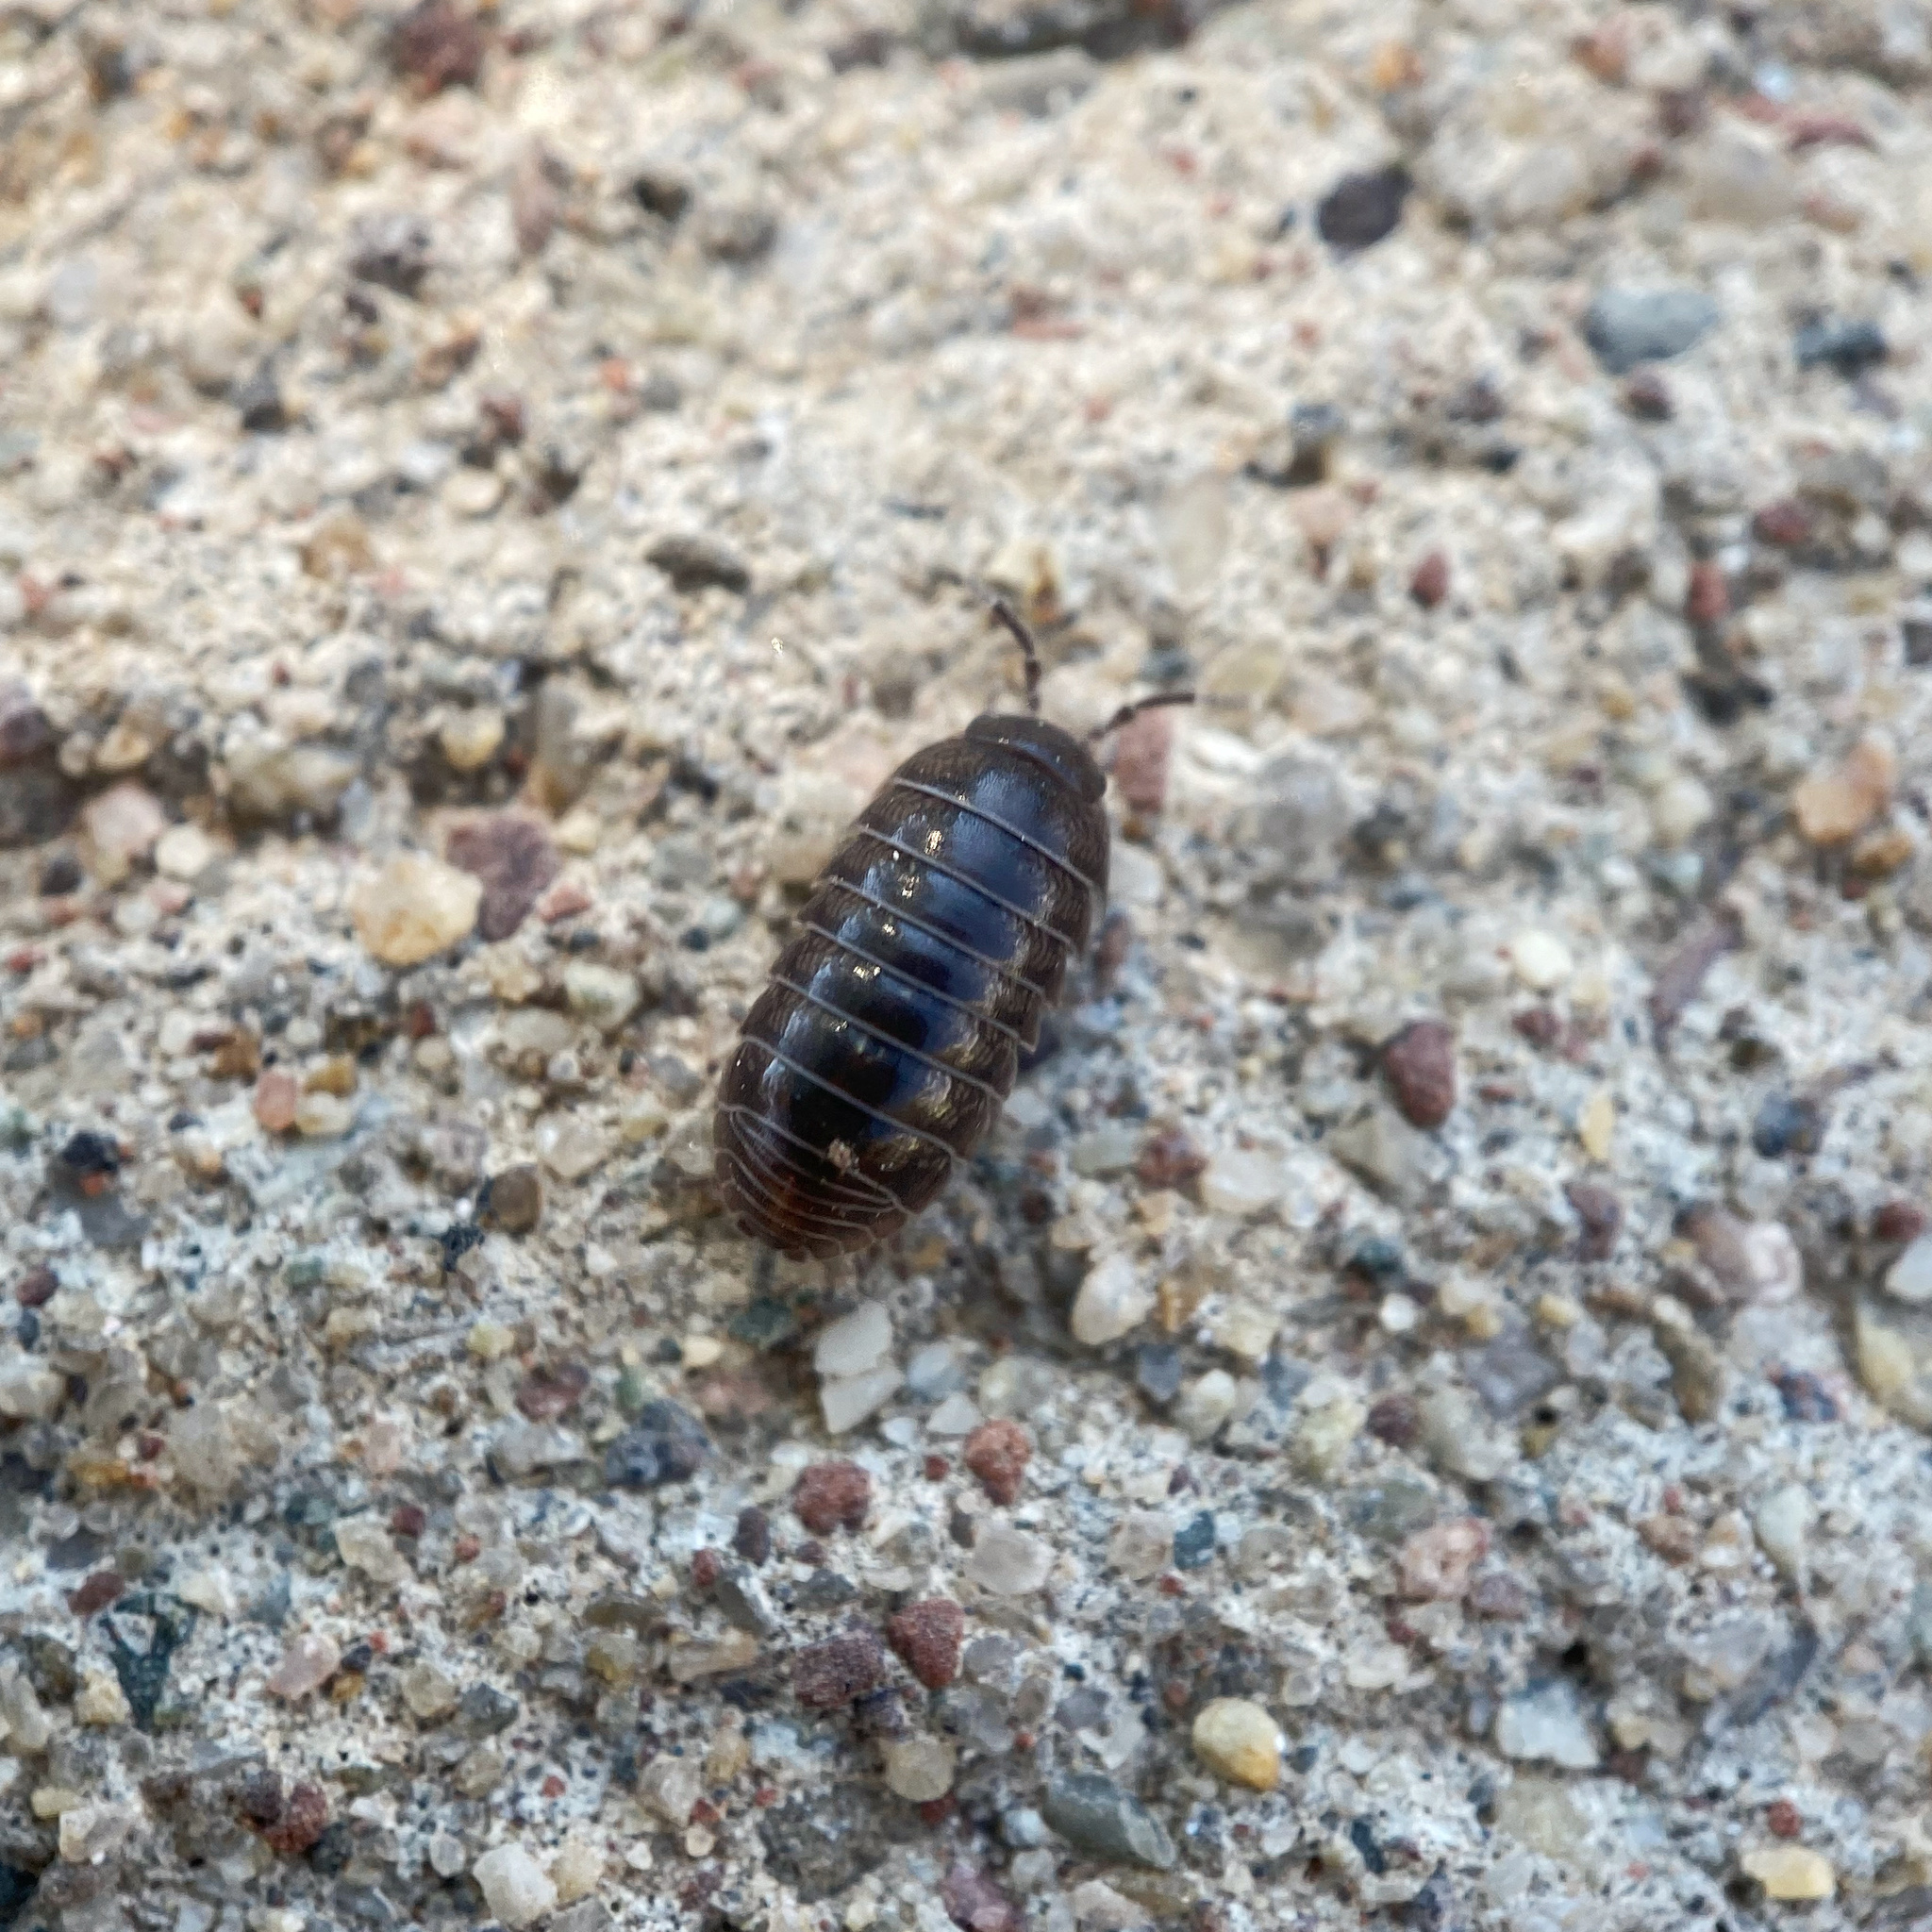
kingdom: Animalia
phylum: Arthropoda
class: Malacostraca
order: Isopoda
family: Armadillidiidae
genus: Armadillidium
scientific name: Armadillidium vulgare
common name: Common pill woodlouse
